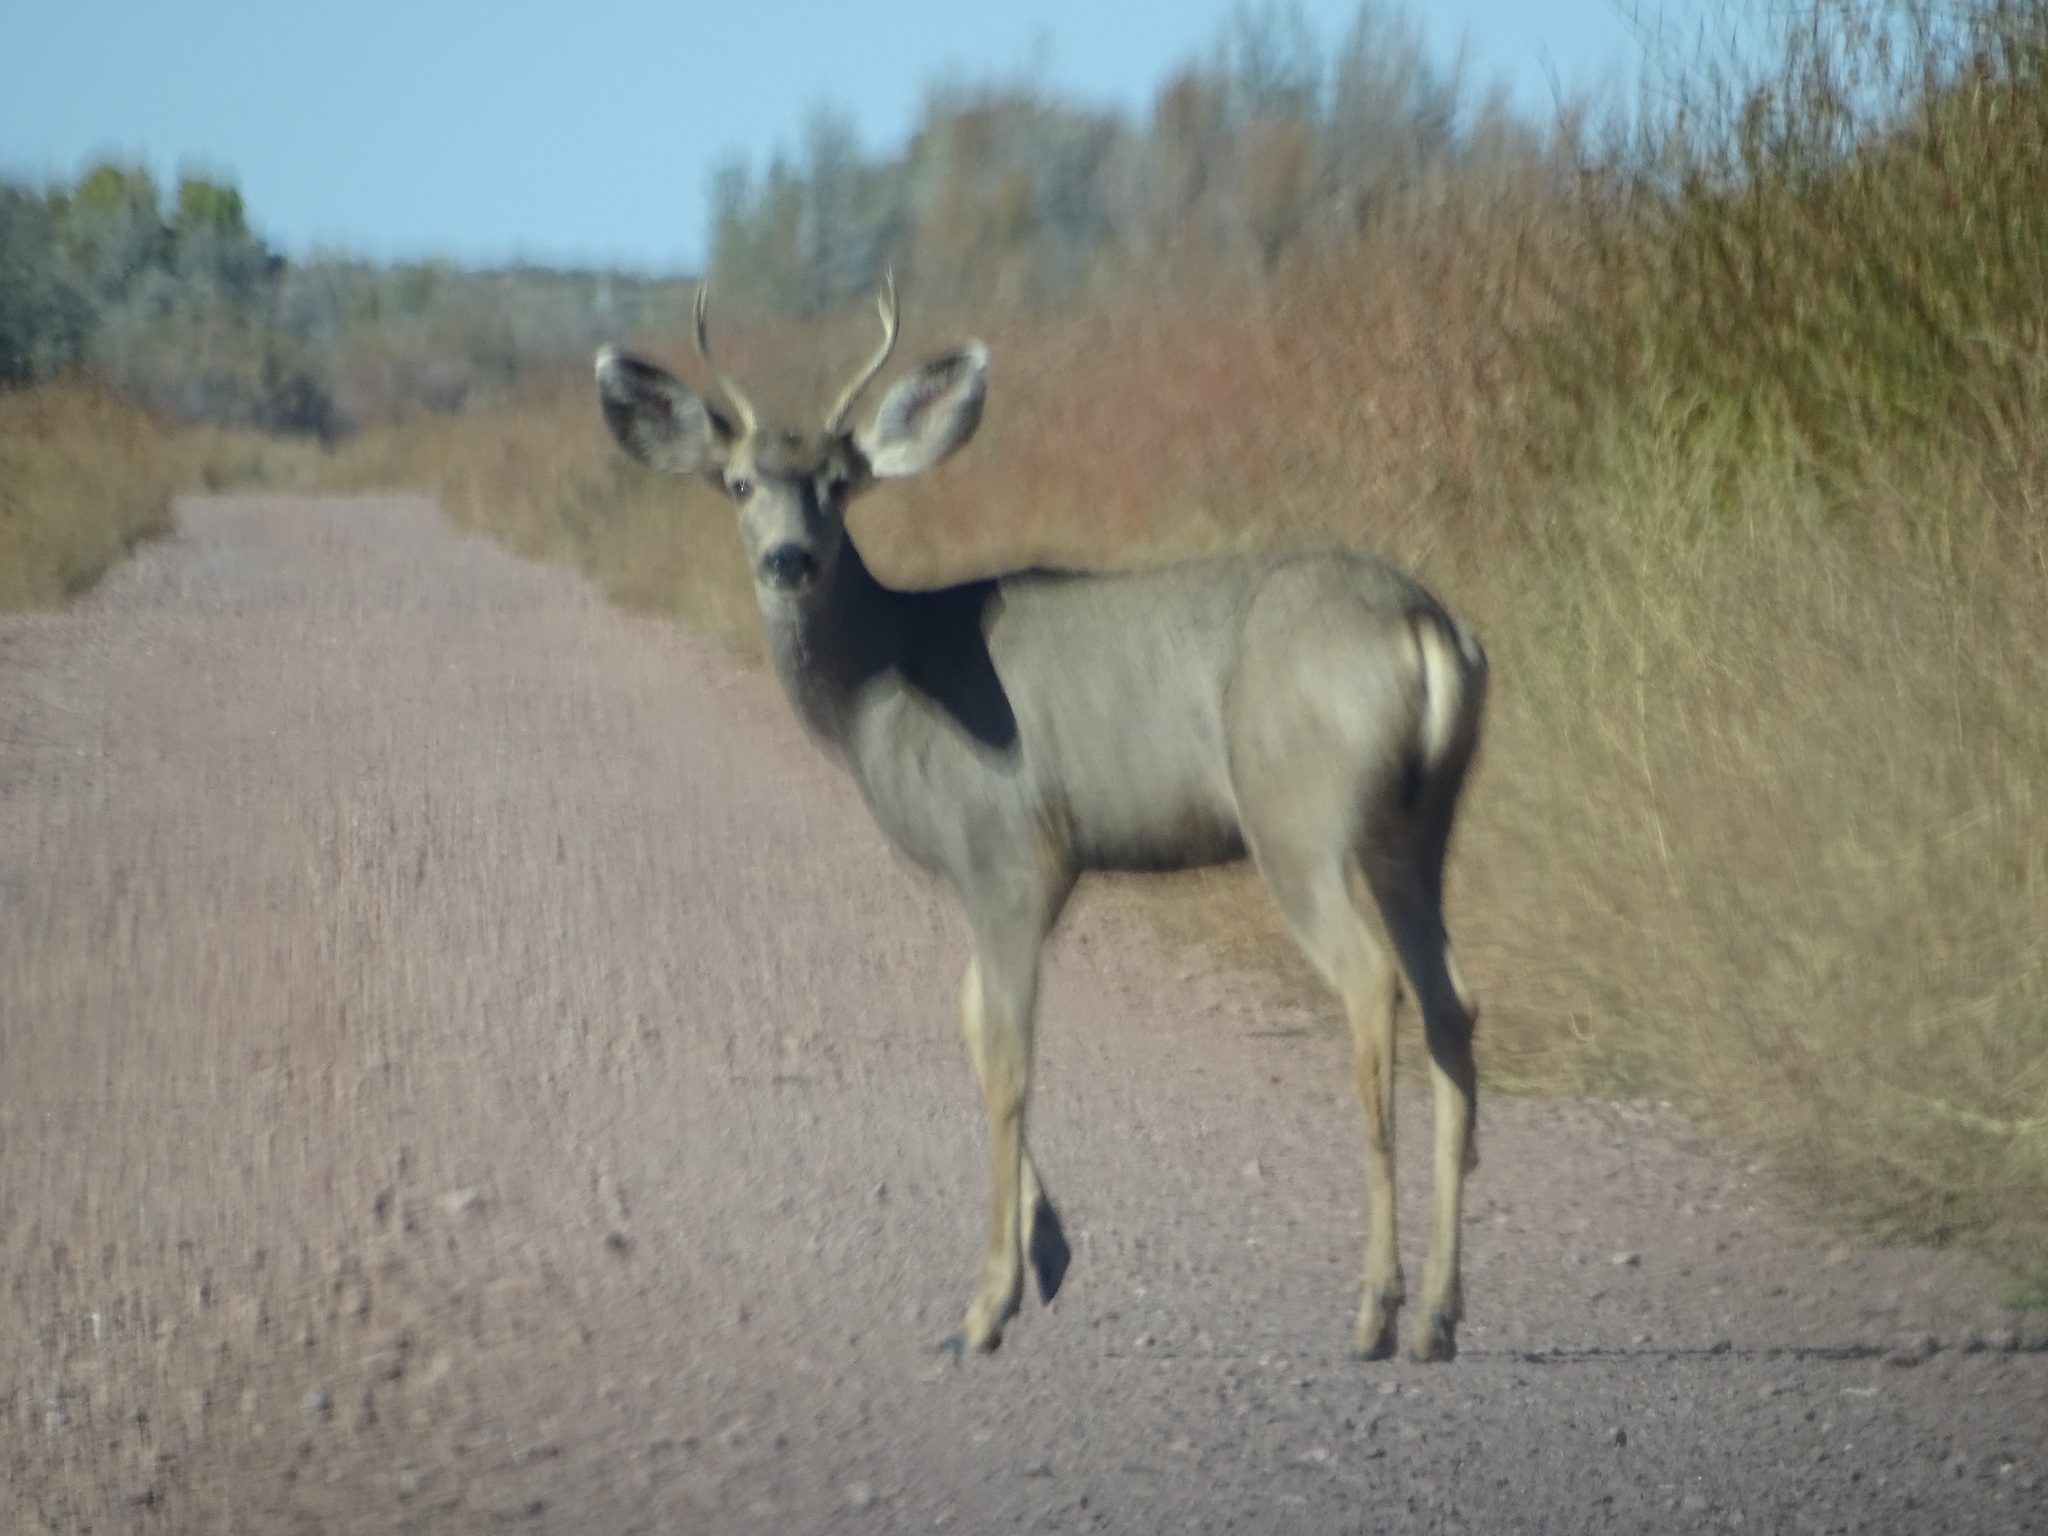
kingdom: Animalia
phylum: Chordata
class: Mammalia
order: Artiodactyla
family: Cervidae
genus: Odocoileus
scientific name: Odocoileus hemionus
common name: Mule deer
